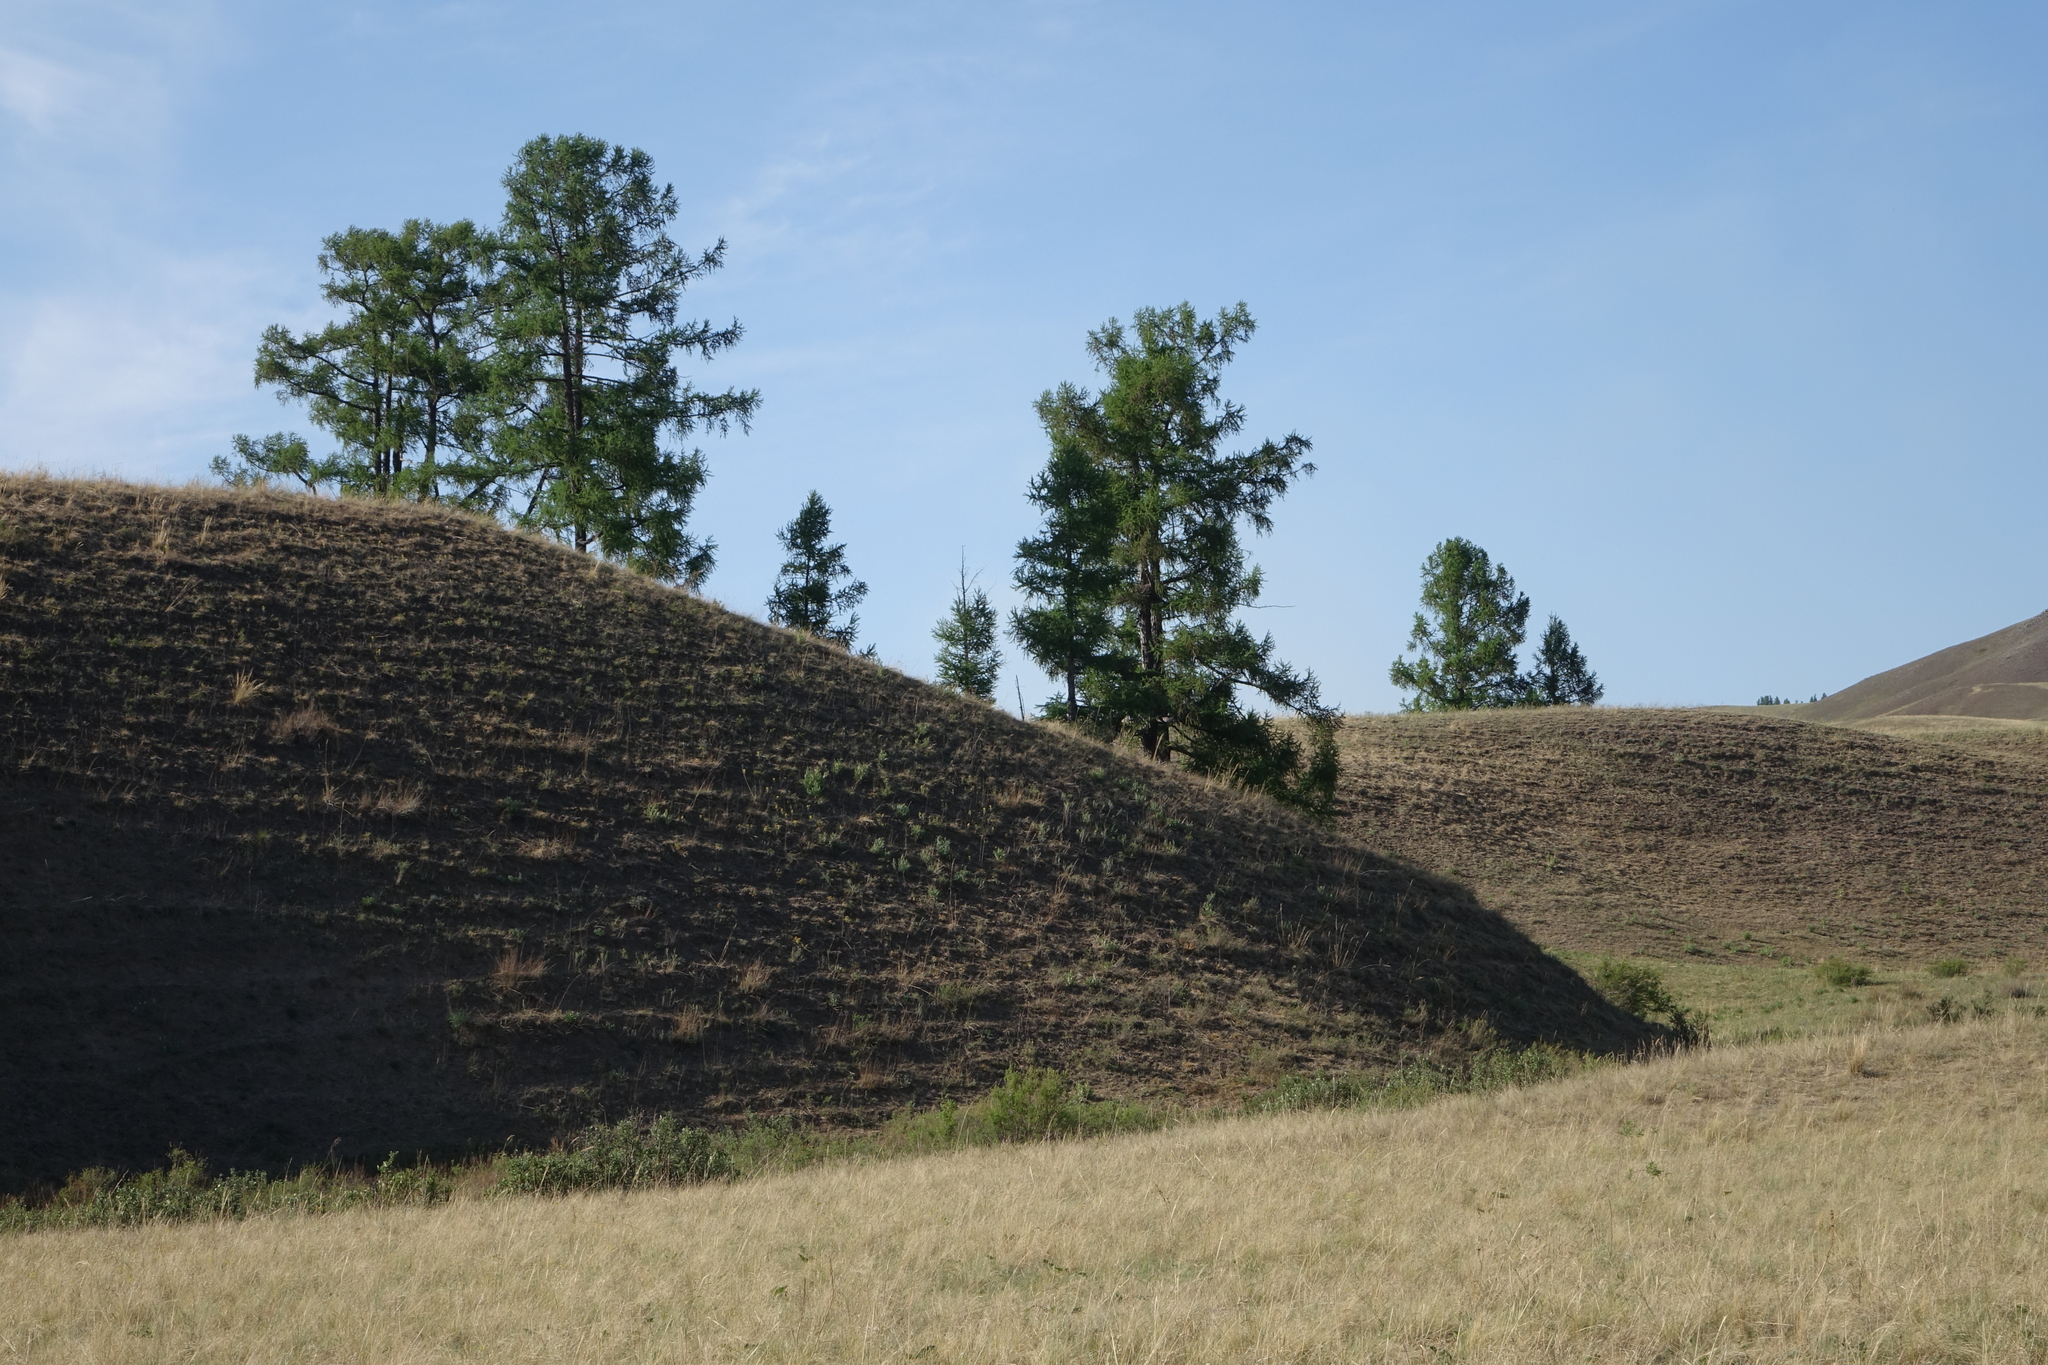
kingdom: Plantae
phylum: Tracheophyta
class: Pinopsida
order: Pinales
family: Pinaceae
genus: Larix
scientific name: Larix sibirica
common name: Siberian larch
